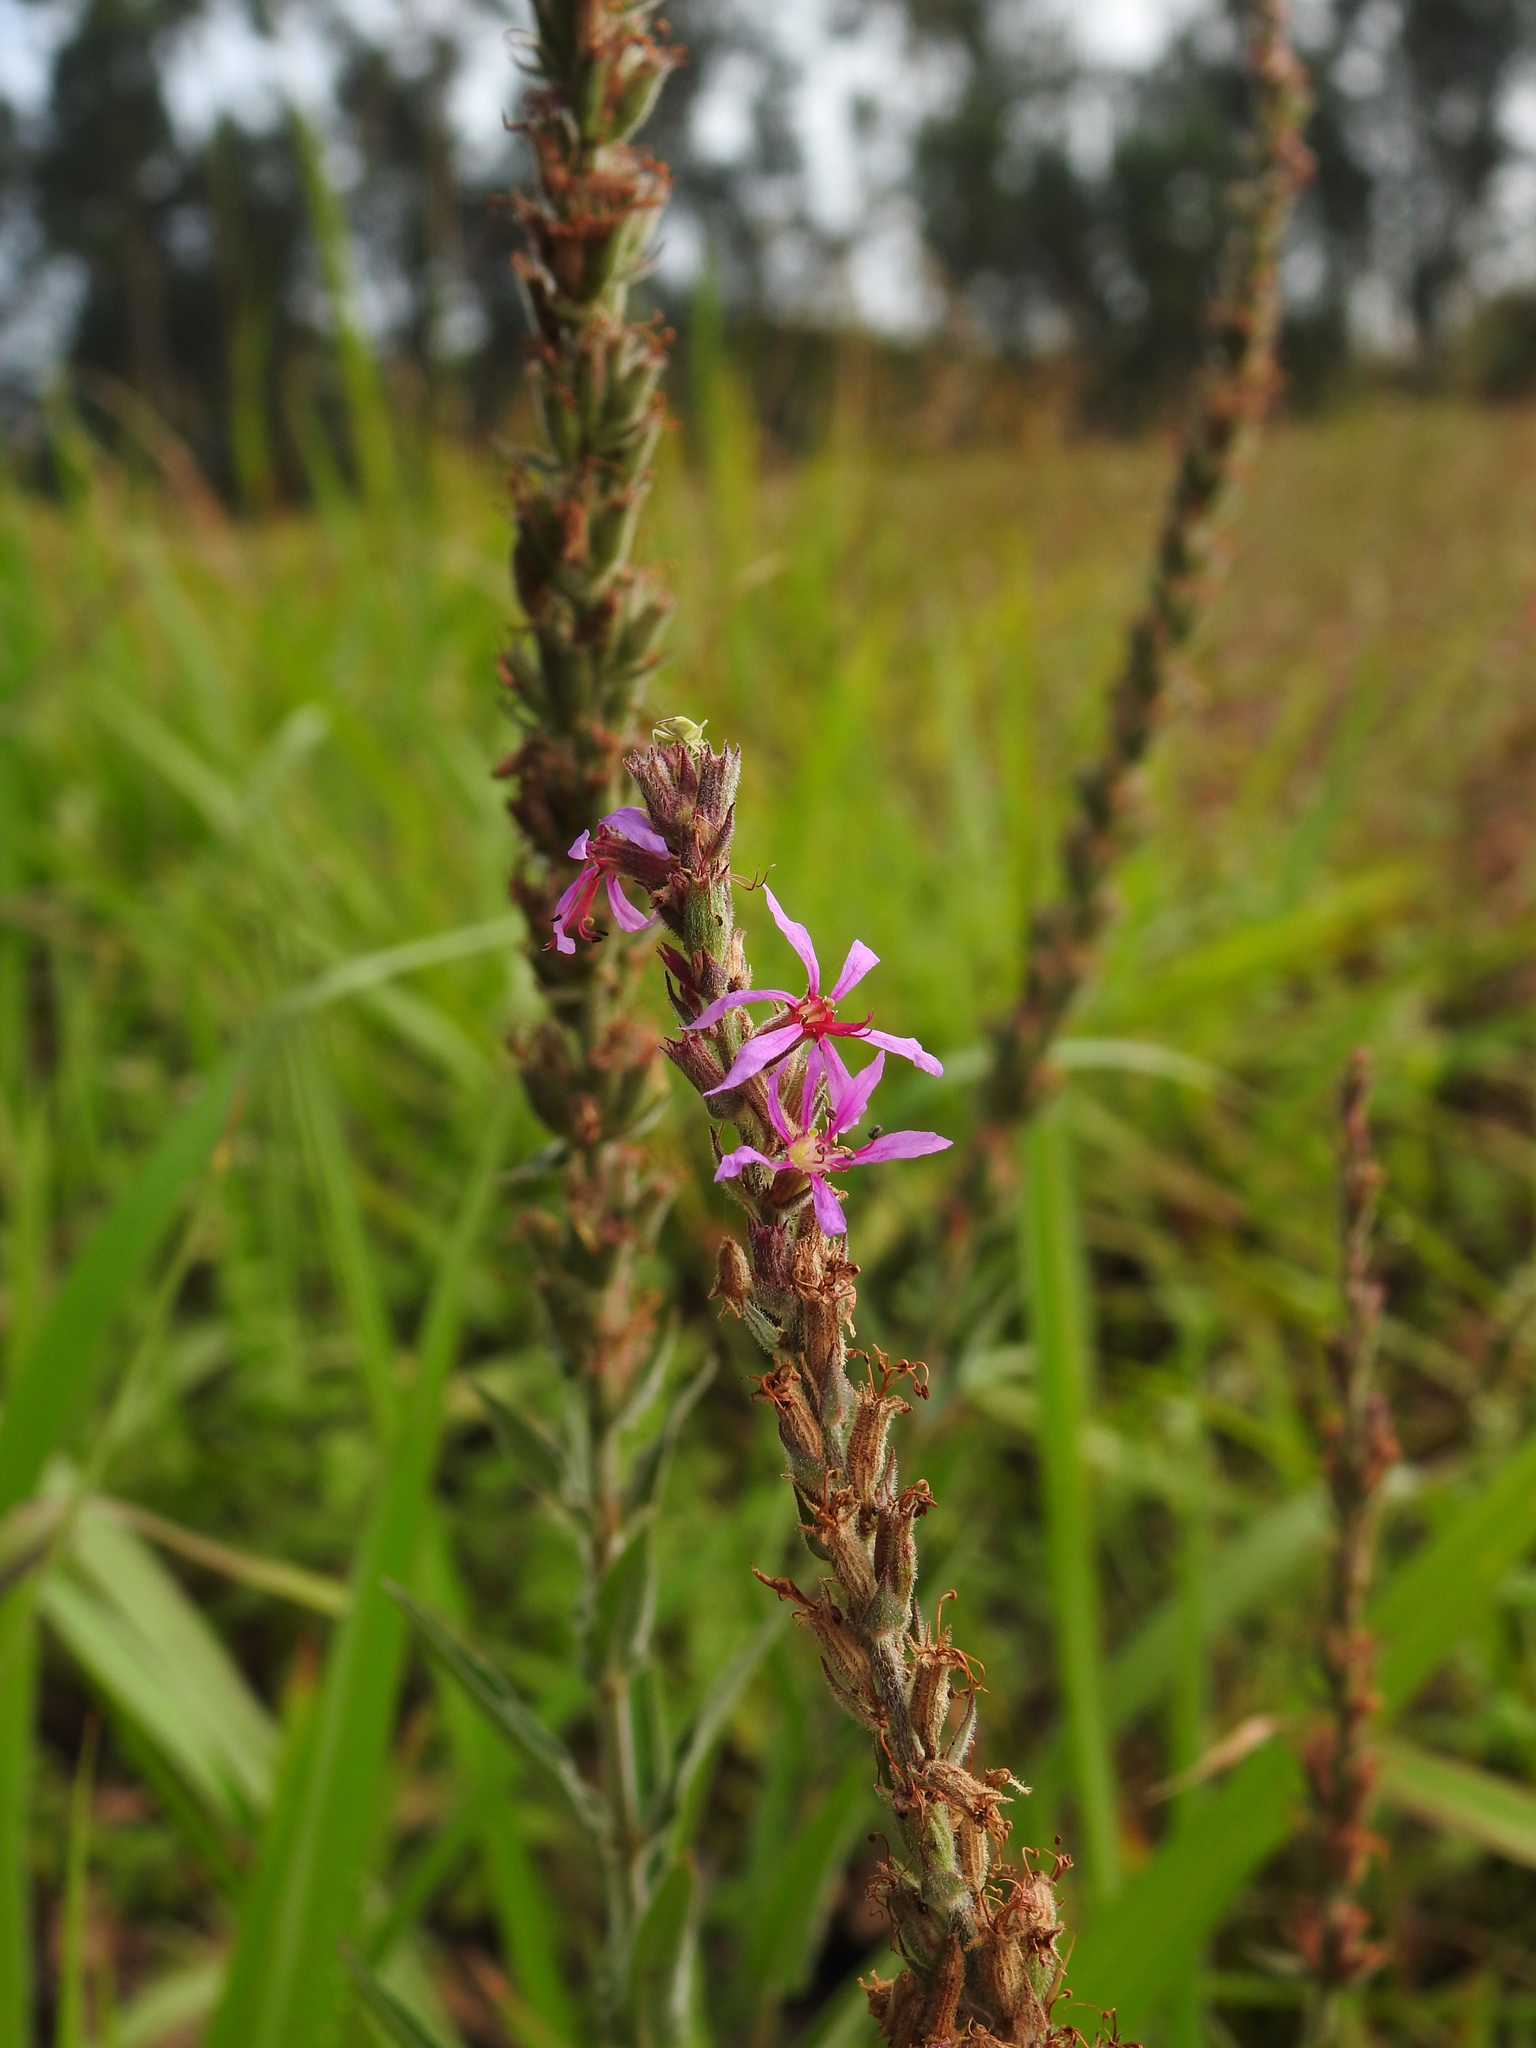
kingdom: Plantae
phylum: Tracheophyta
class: Magnoliopsida
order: Myrtales
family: Lythraceae
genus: Lythrum
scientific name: Lythrum salicaria
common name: Purple loosestrife
